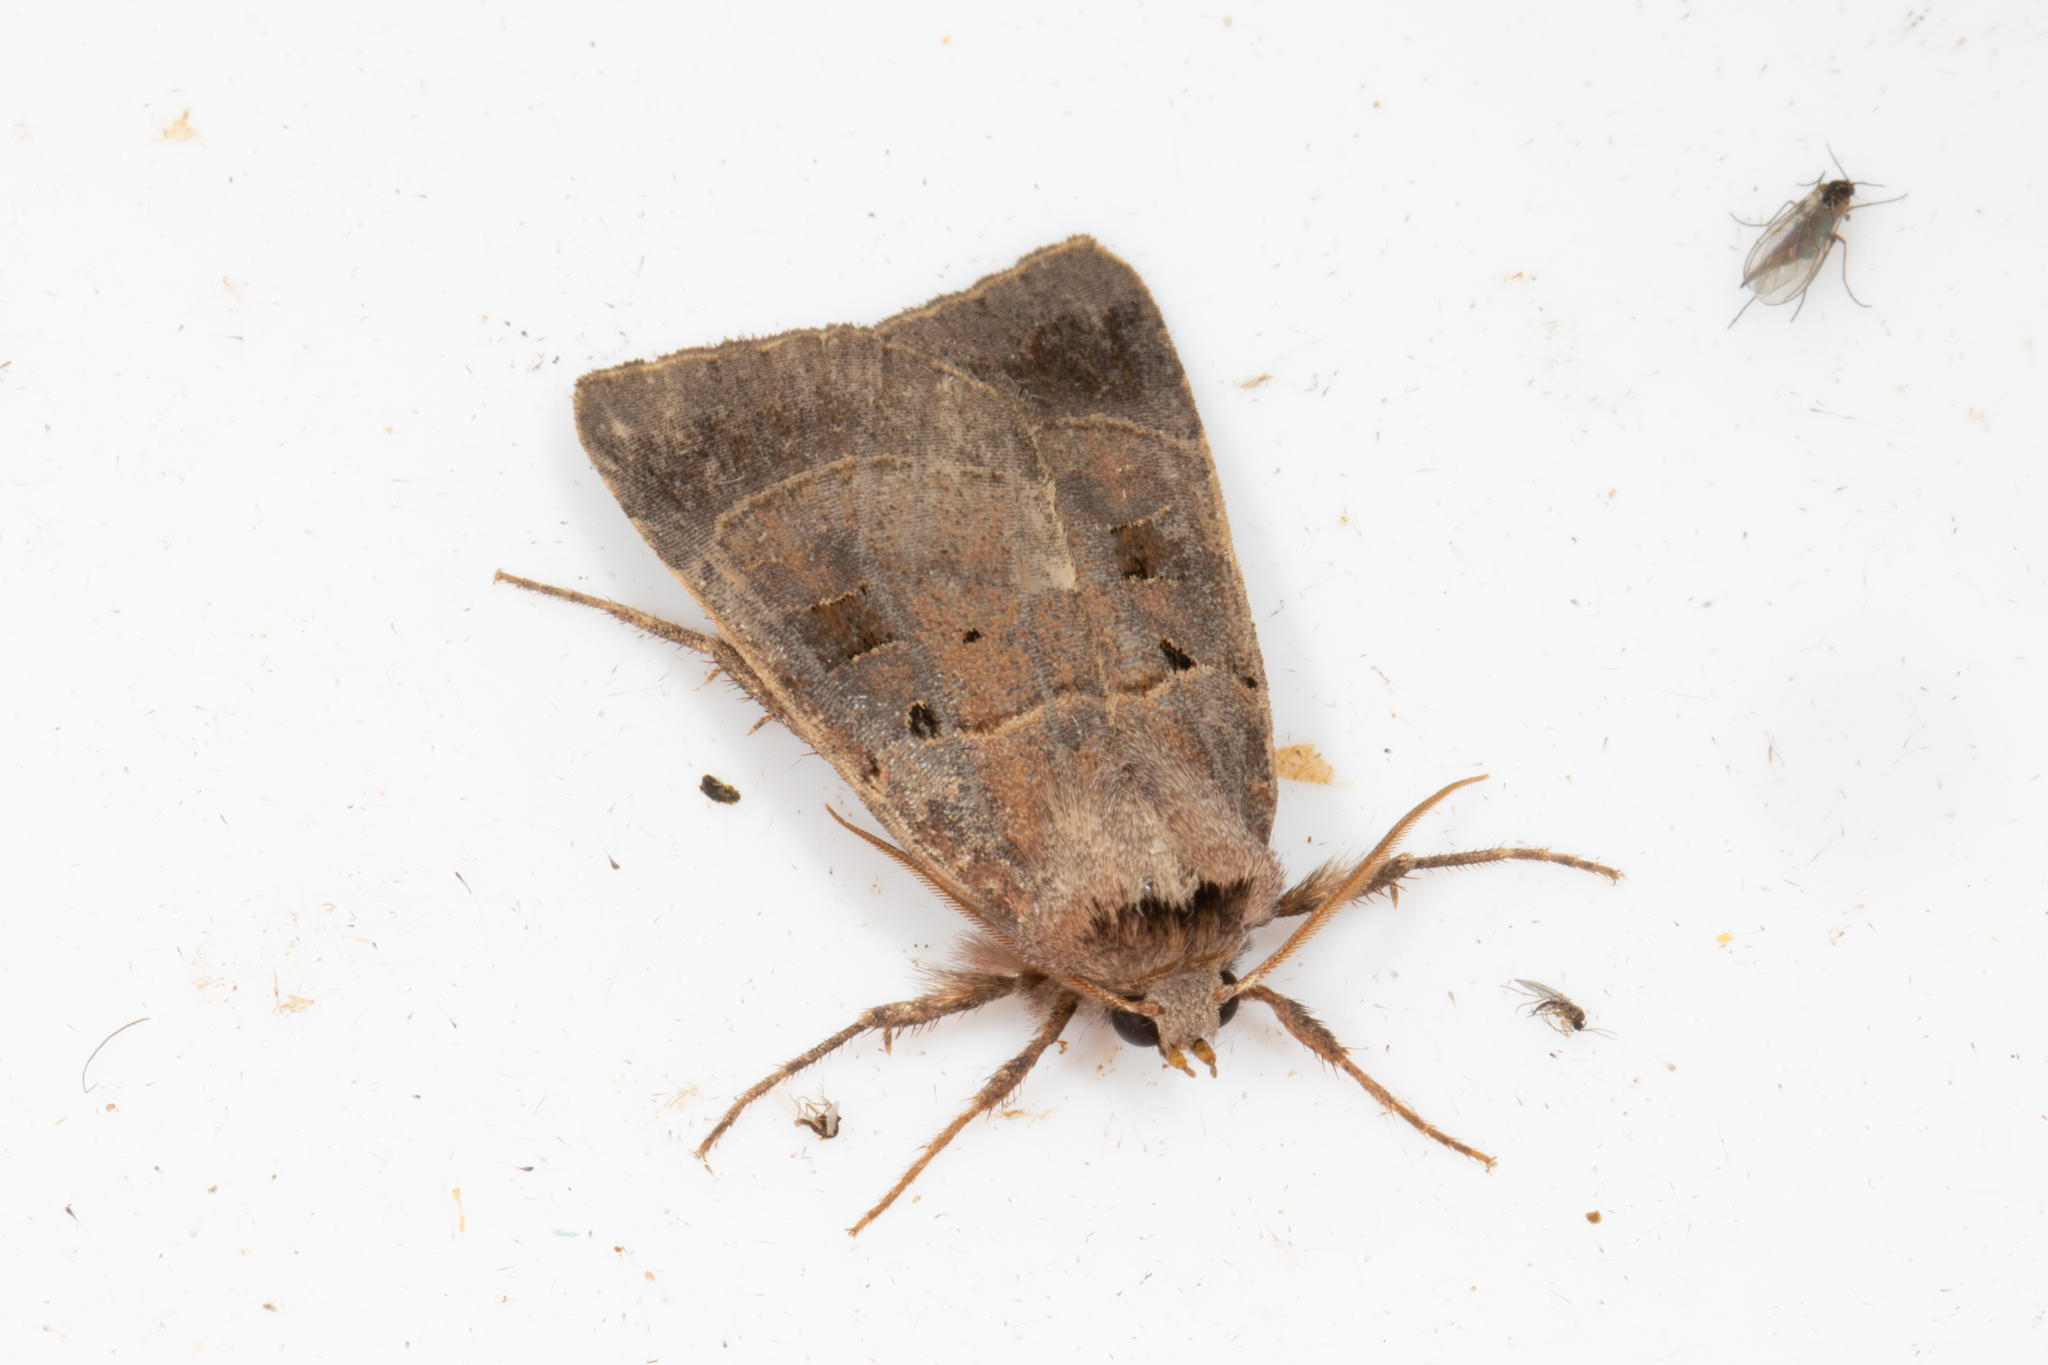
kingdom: Animalia
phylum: Arthropoda
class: Insecta
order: Lepidoptera
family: Noctuidae
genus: Agnorisma
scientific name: Agnorisma badinodis
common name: Pale-banded dart
